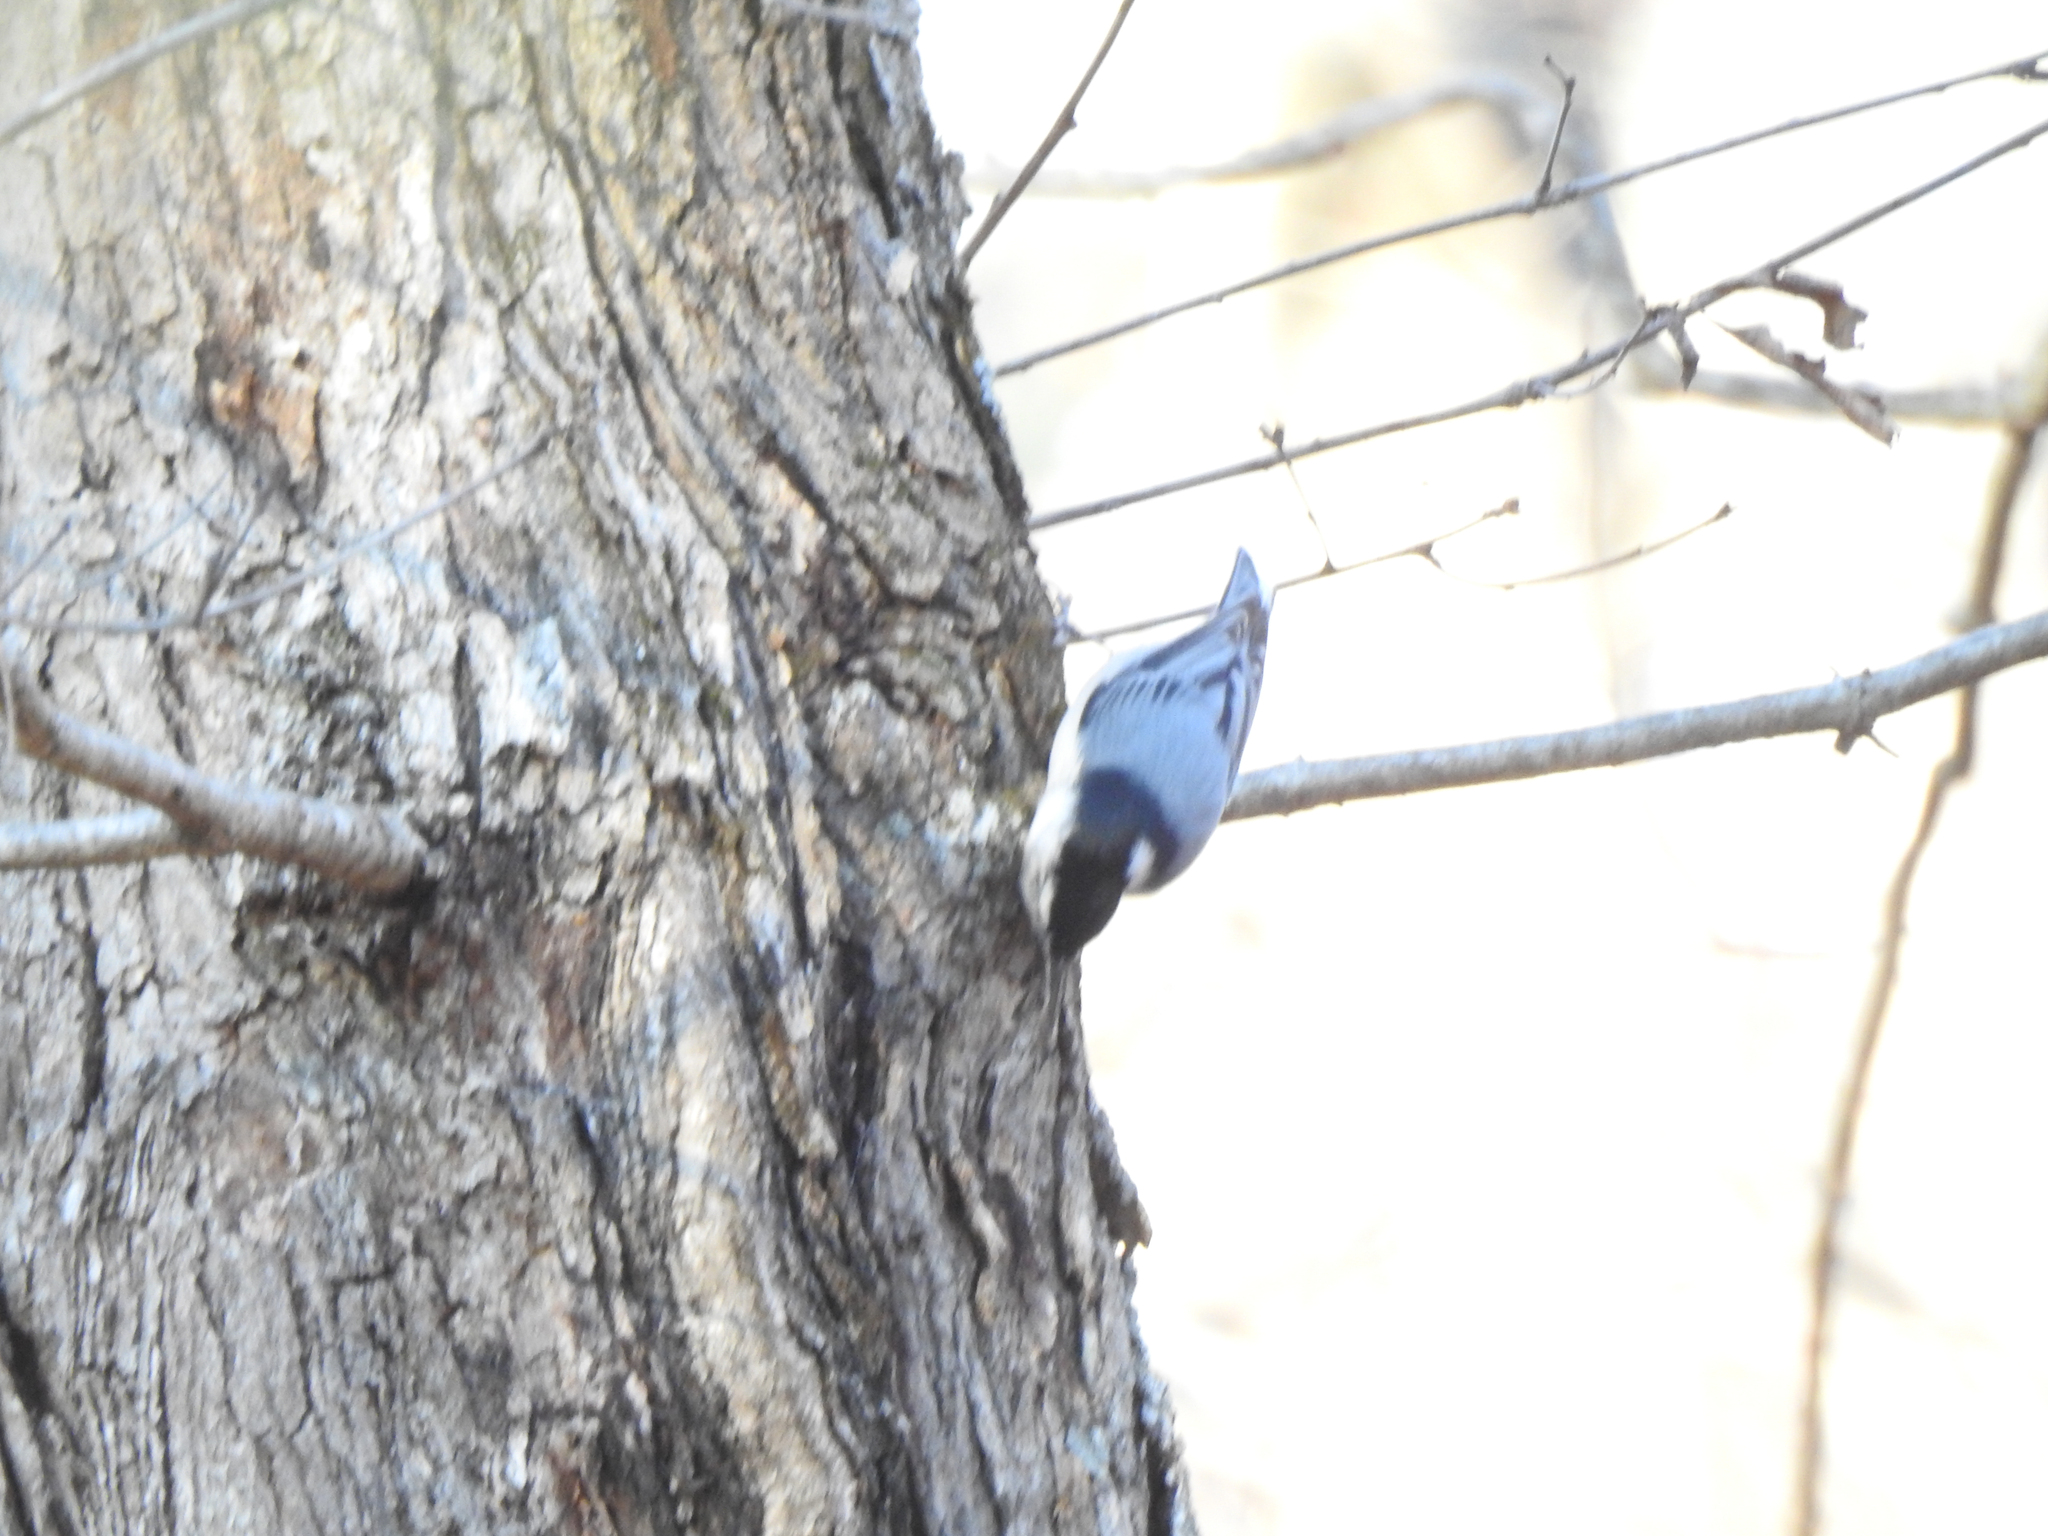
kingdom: Animalia
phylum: Chordata
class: Aves
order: Passeriformes
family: Sittidae
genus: Sitta
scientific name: Sitta carolinensis
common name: White-breasted nuthatch
